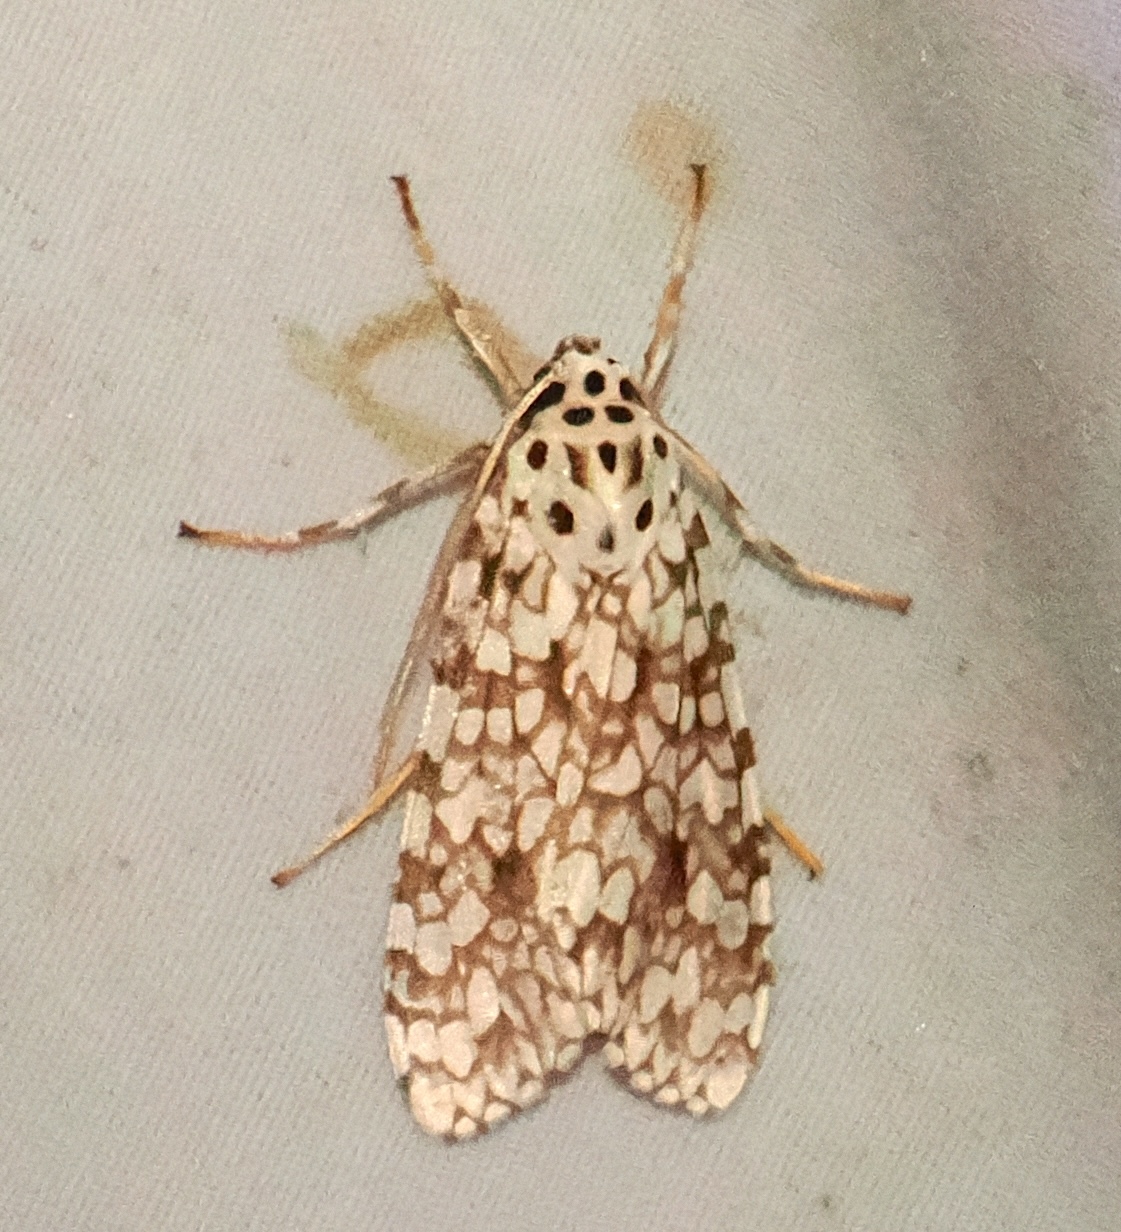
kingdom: Animalia
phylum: Arthropoda
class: Insecta
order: Lepidoptera
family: Erebidae
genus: Carales
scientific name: Carales astur
